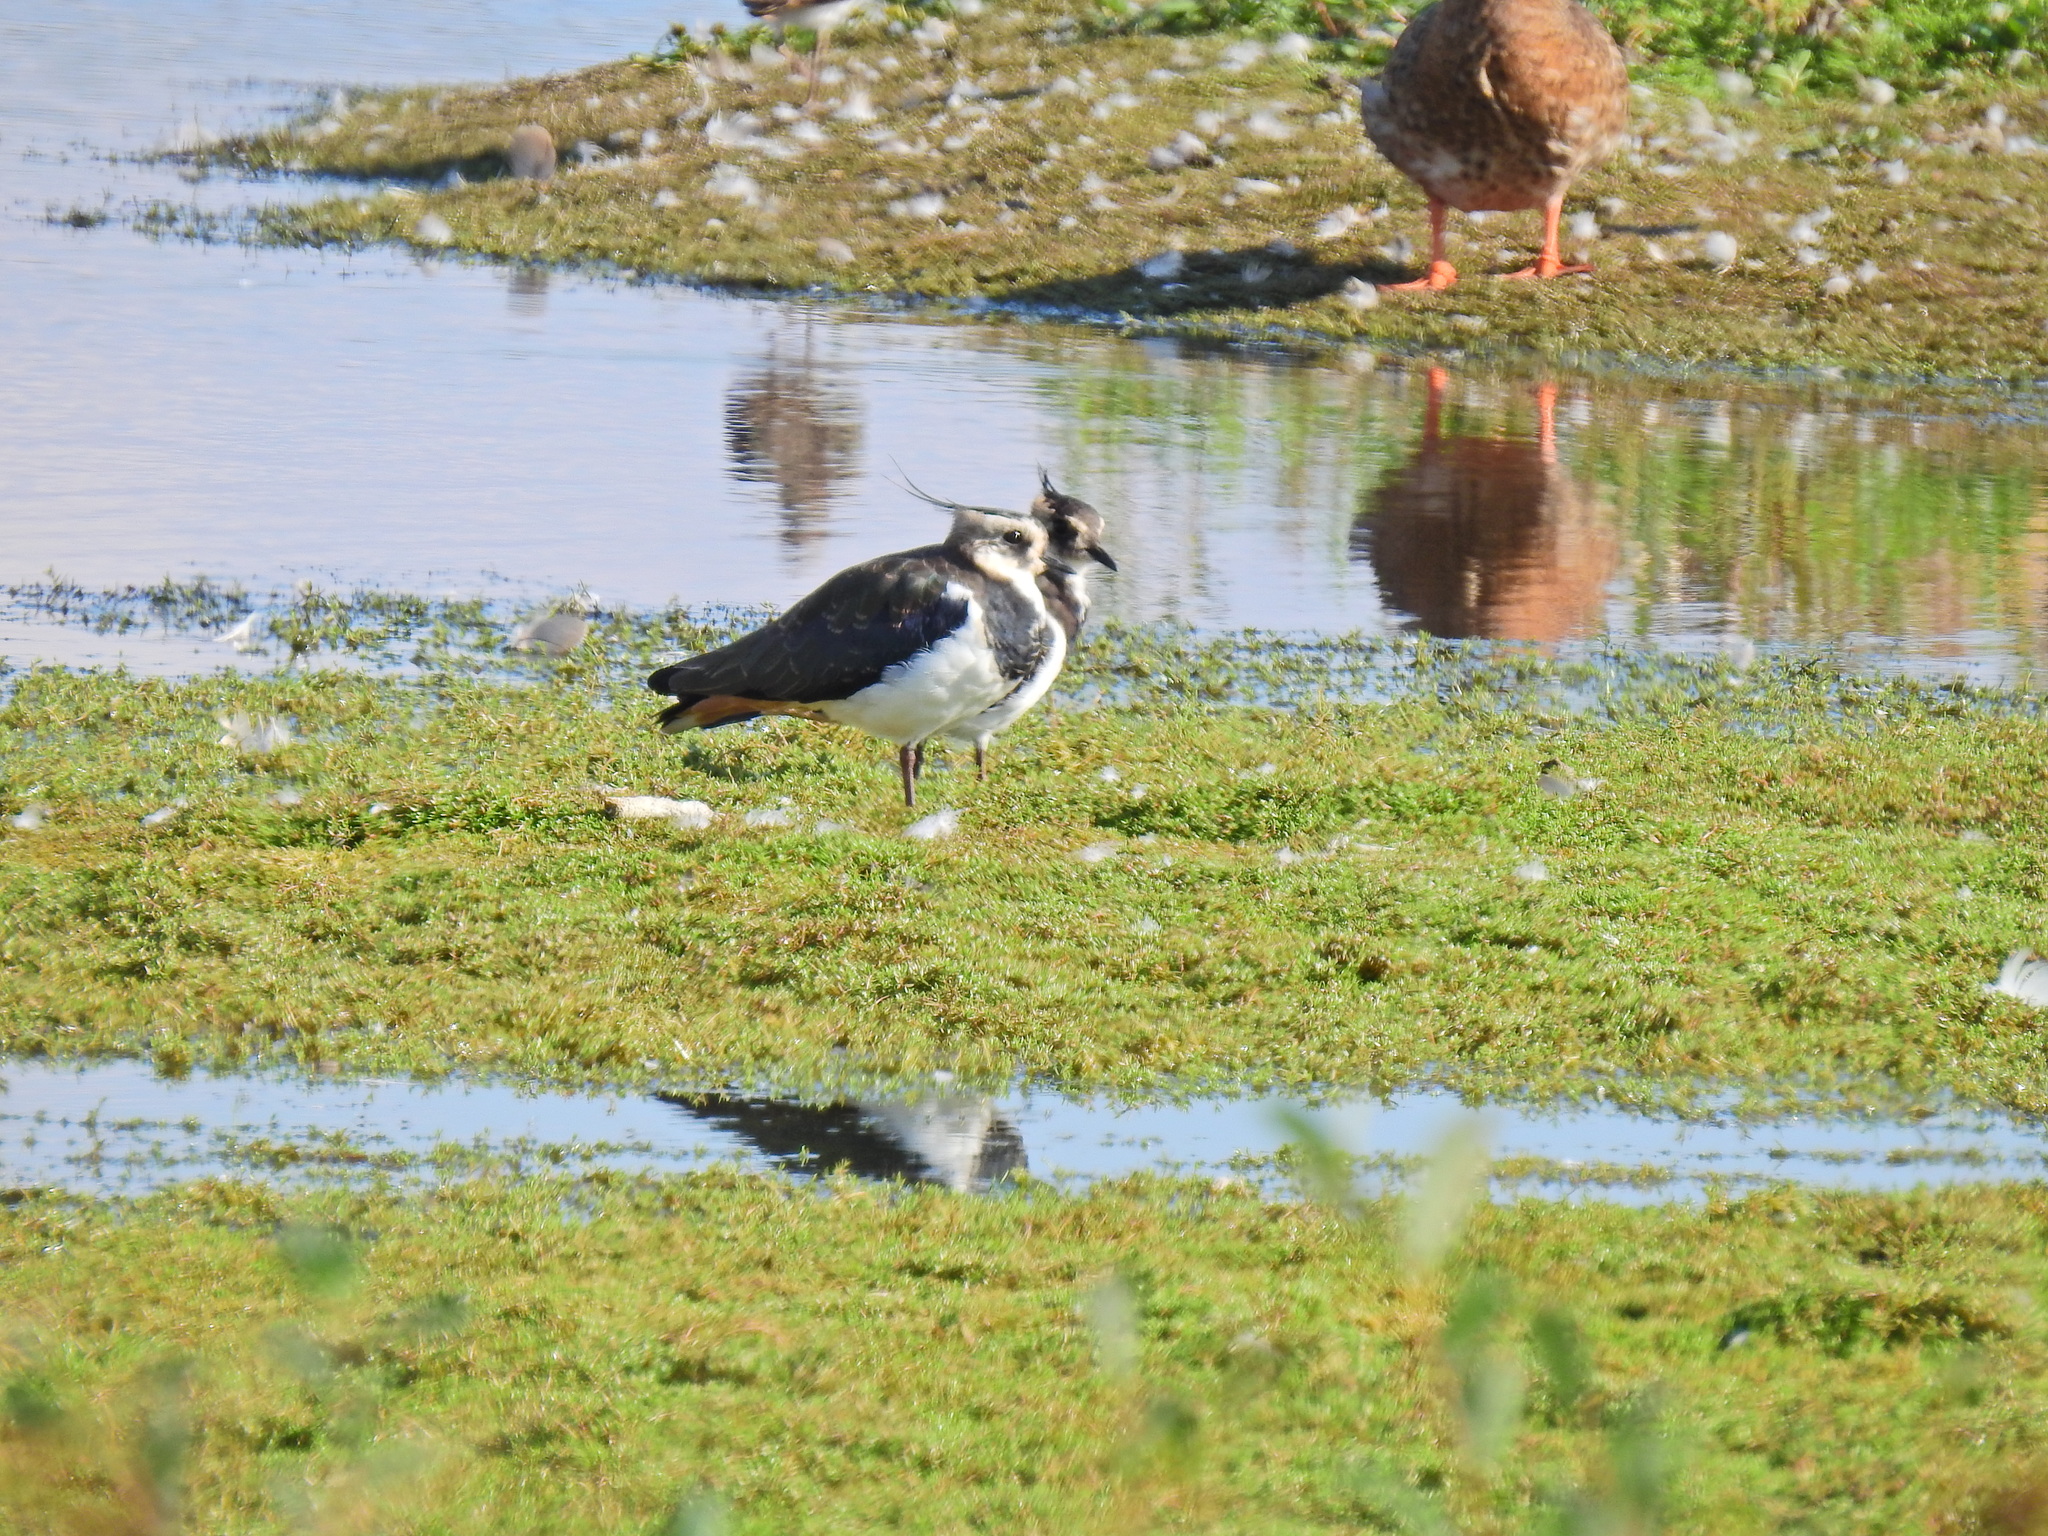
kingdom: Animalia
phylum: Chordata
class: Aves
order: Charadriiformes
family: Charadriidae
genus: Vanellus
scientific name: Vanellus vanellus
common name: Northern lapwing
